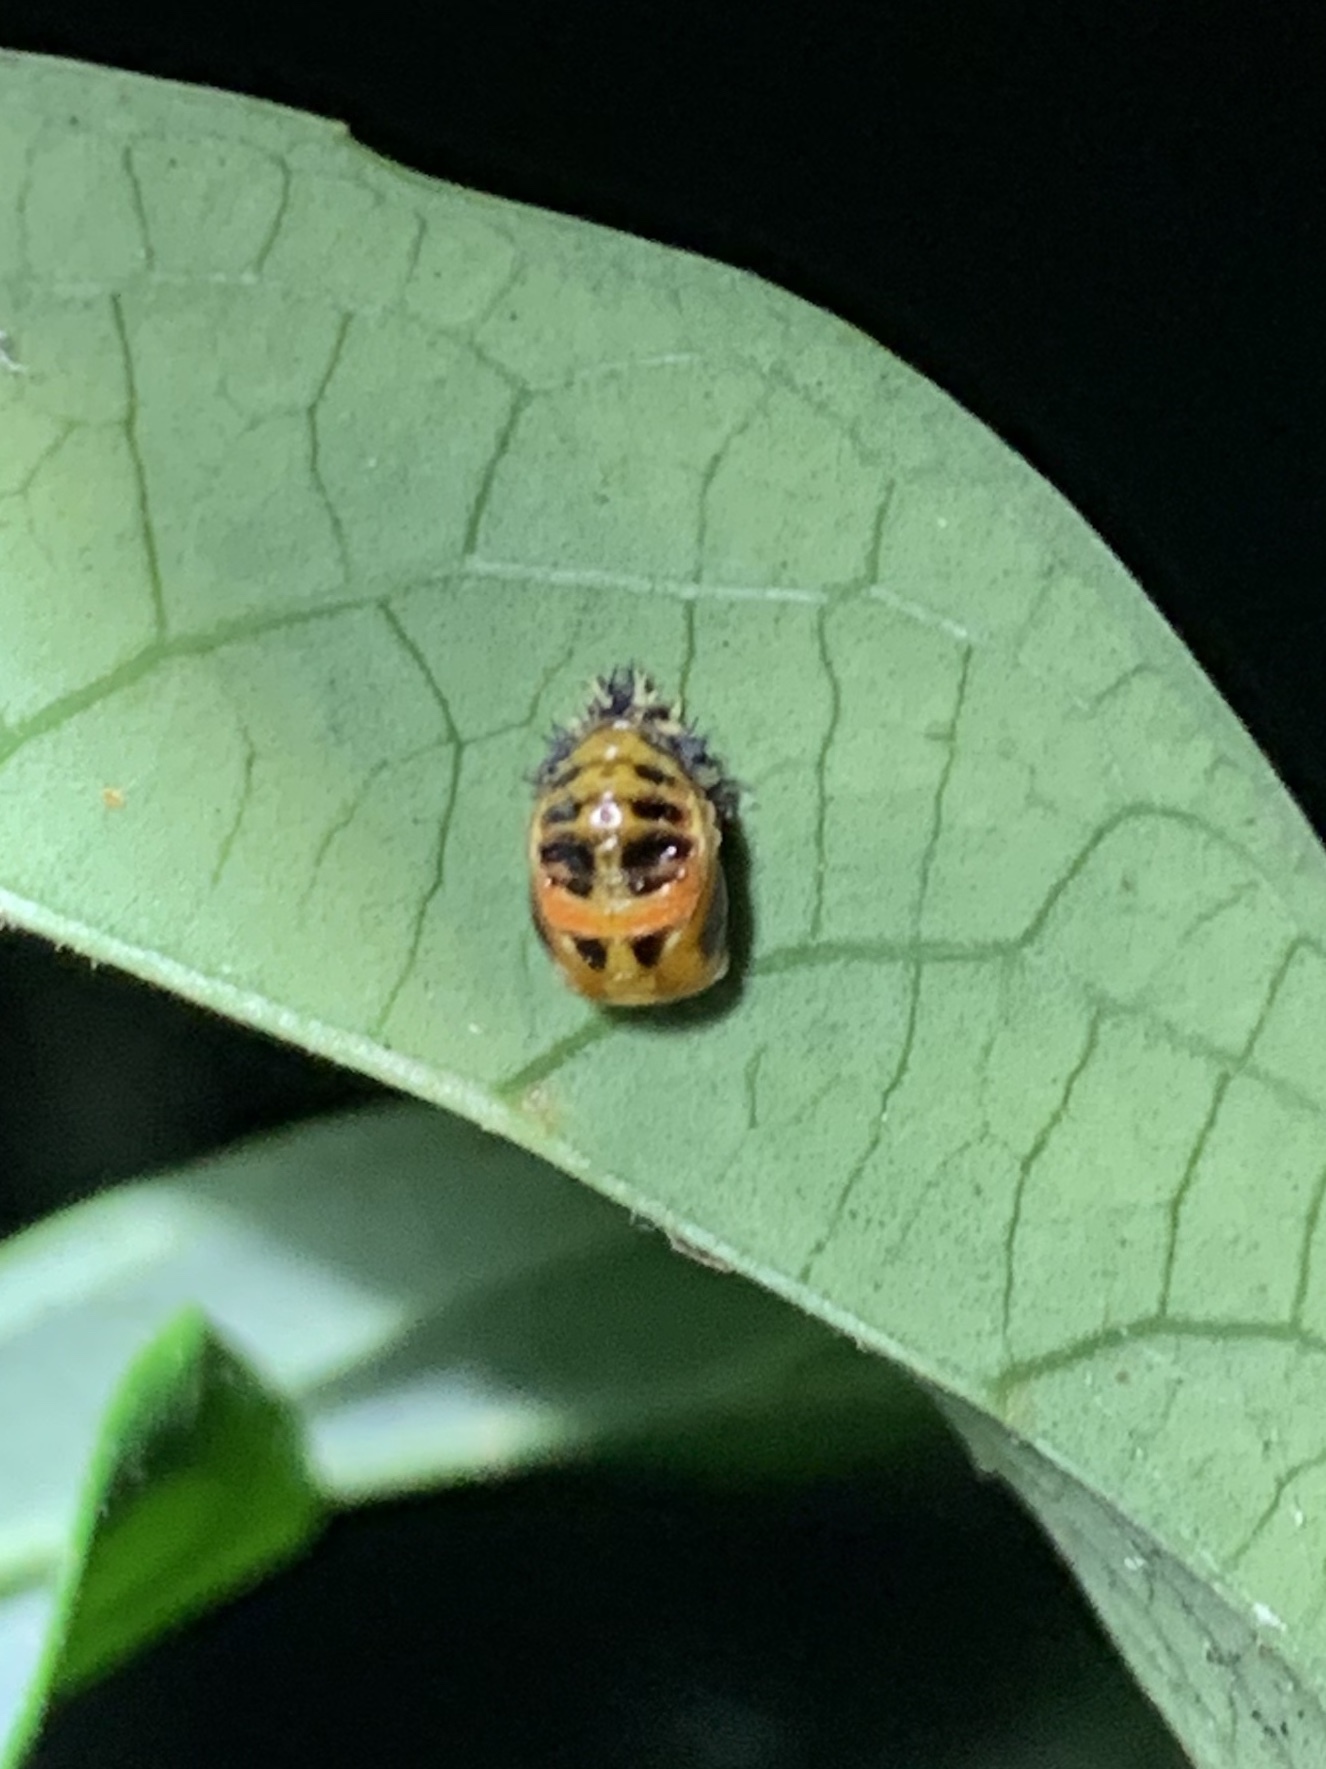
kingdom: Animalia
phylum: Arthropoda
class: Insecta
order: Coleoptera
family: Coccinellidae
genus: Harmonia
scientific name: Harmonia axyridis
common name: Harlequin ladybird
